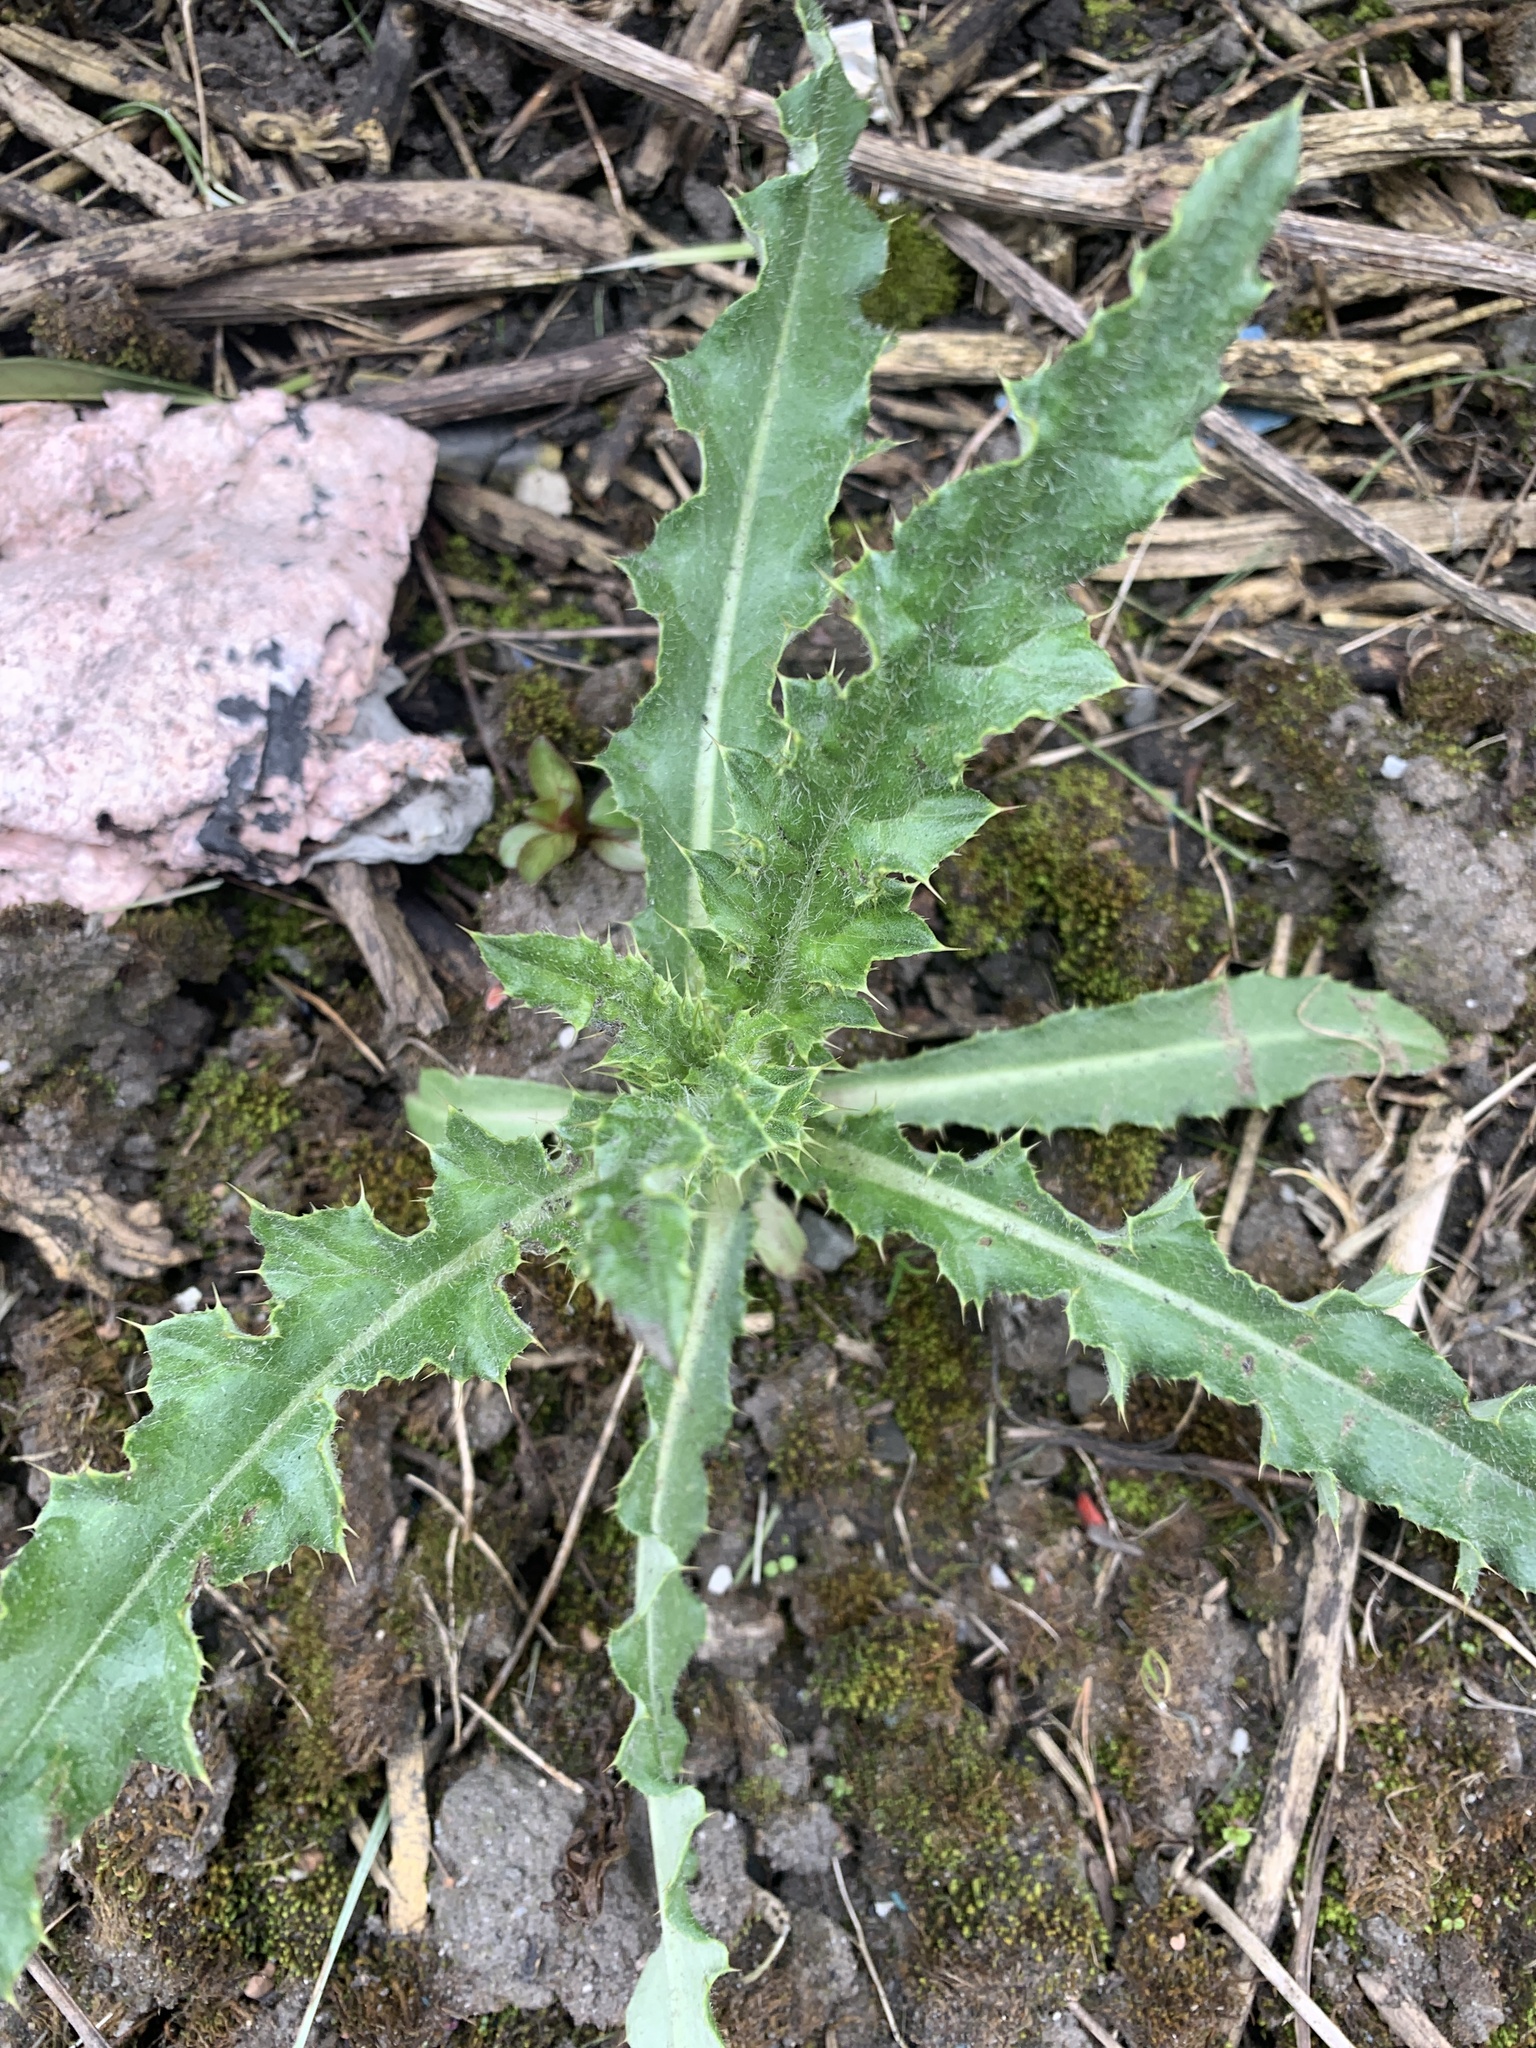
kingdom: Plantae
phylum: Tracheophyta
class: Magnoliopsida
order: Asterales
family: Asteraceae
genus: Cirsium
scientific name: Cirsium arvense
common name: Creeping thistle
